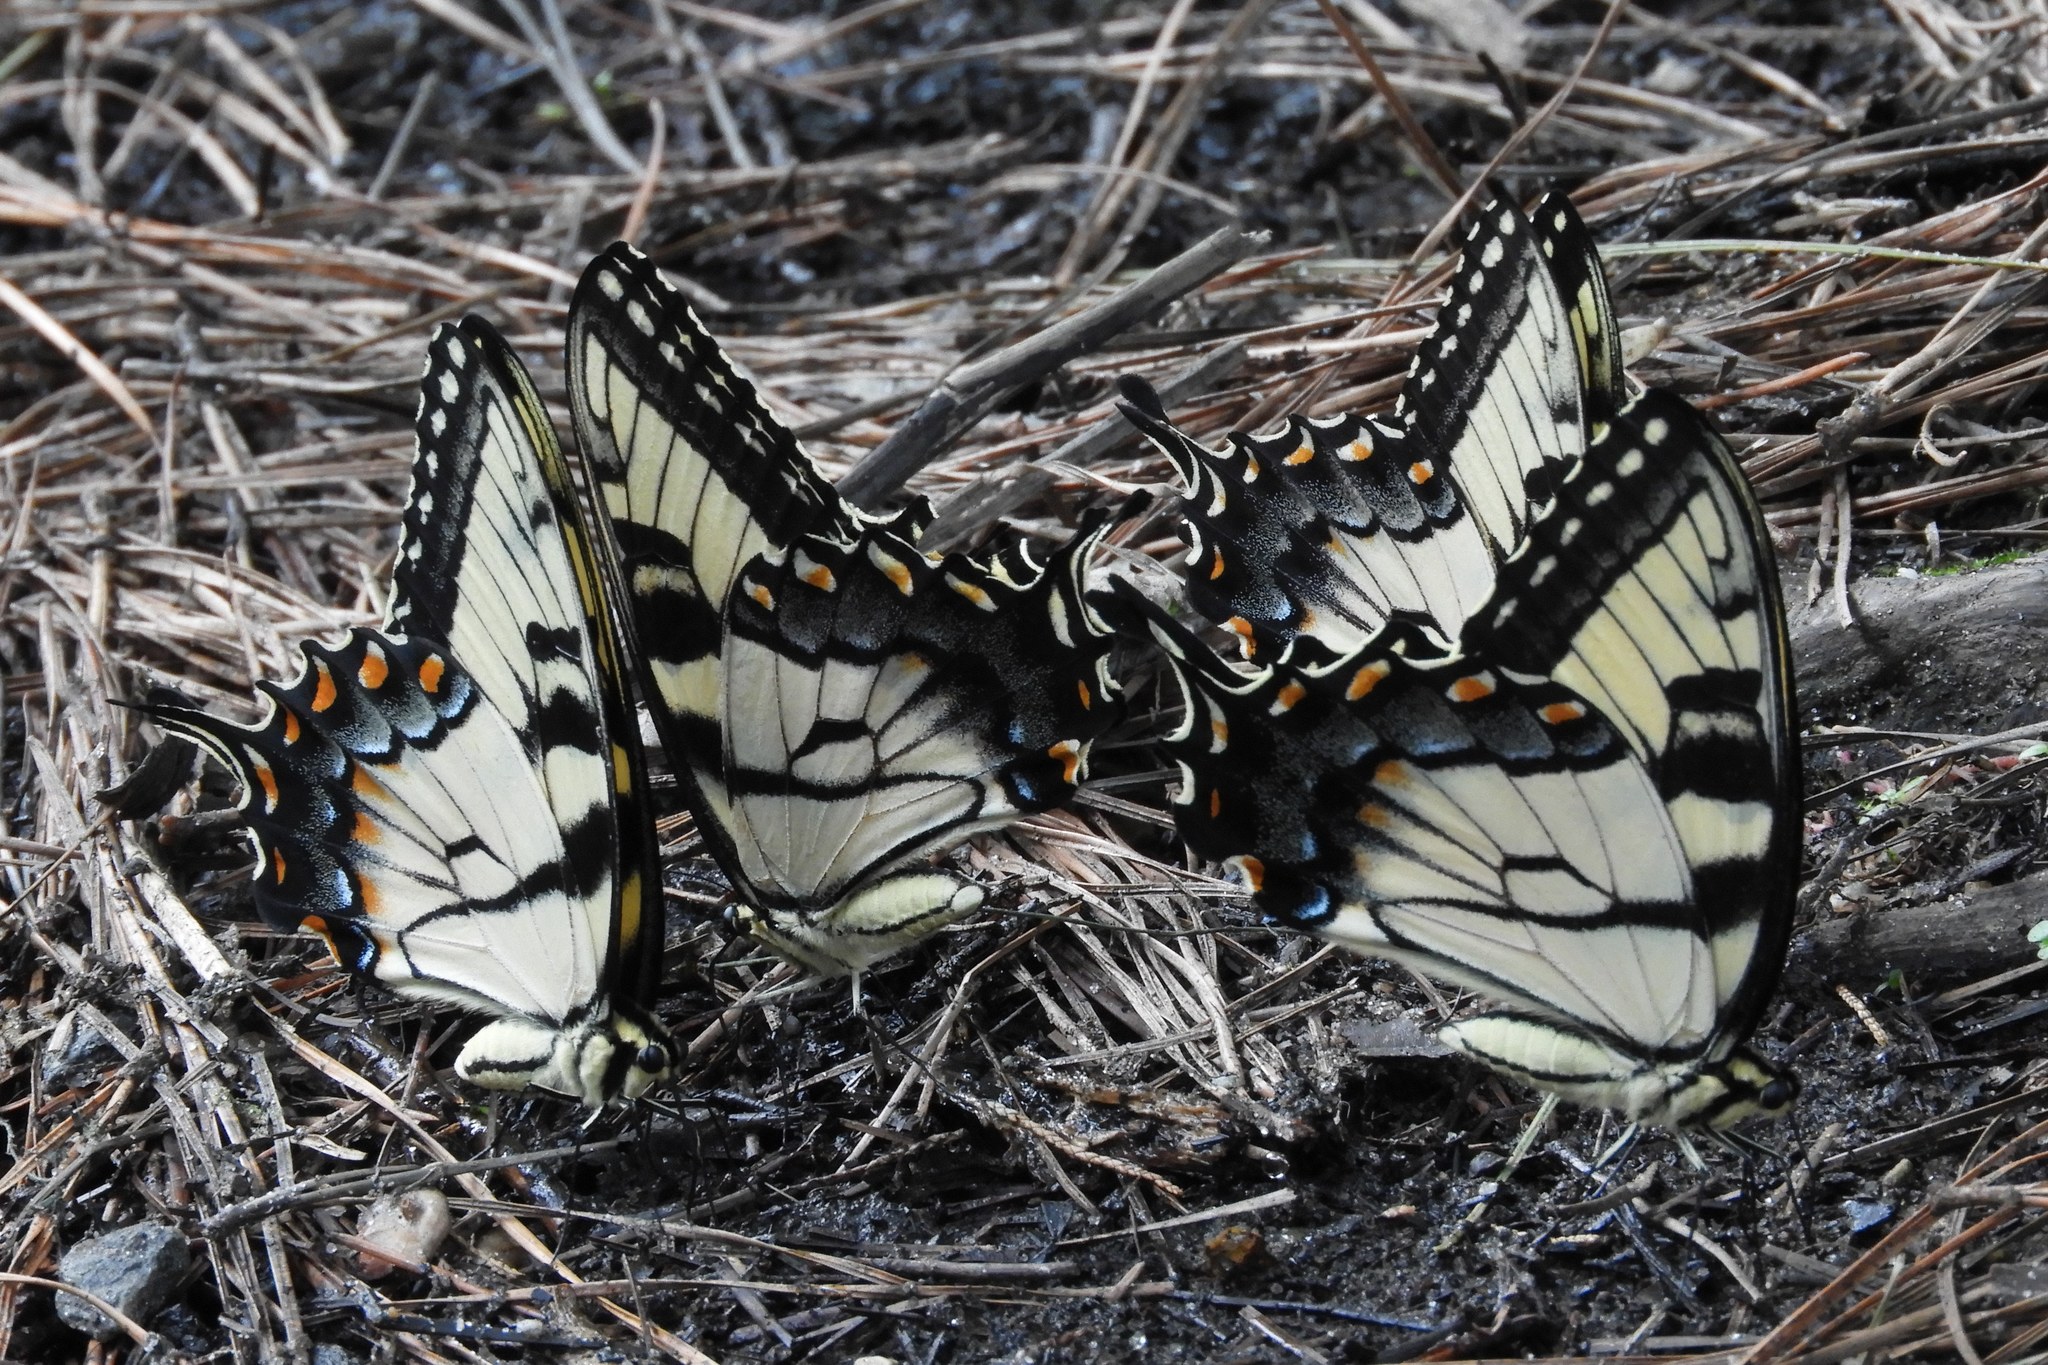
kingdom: Animalia
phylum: Arthropoda
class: Insecta
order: Lepidoptera
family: Papilionidae
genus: Papilio
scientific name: Papilio glaucus
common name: Tiger swallowtail
